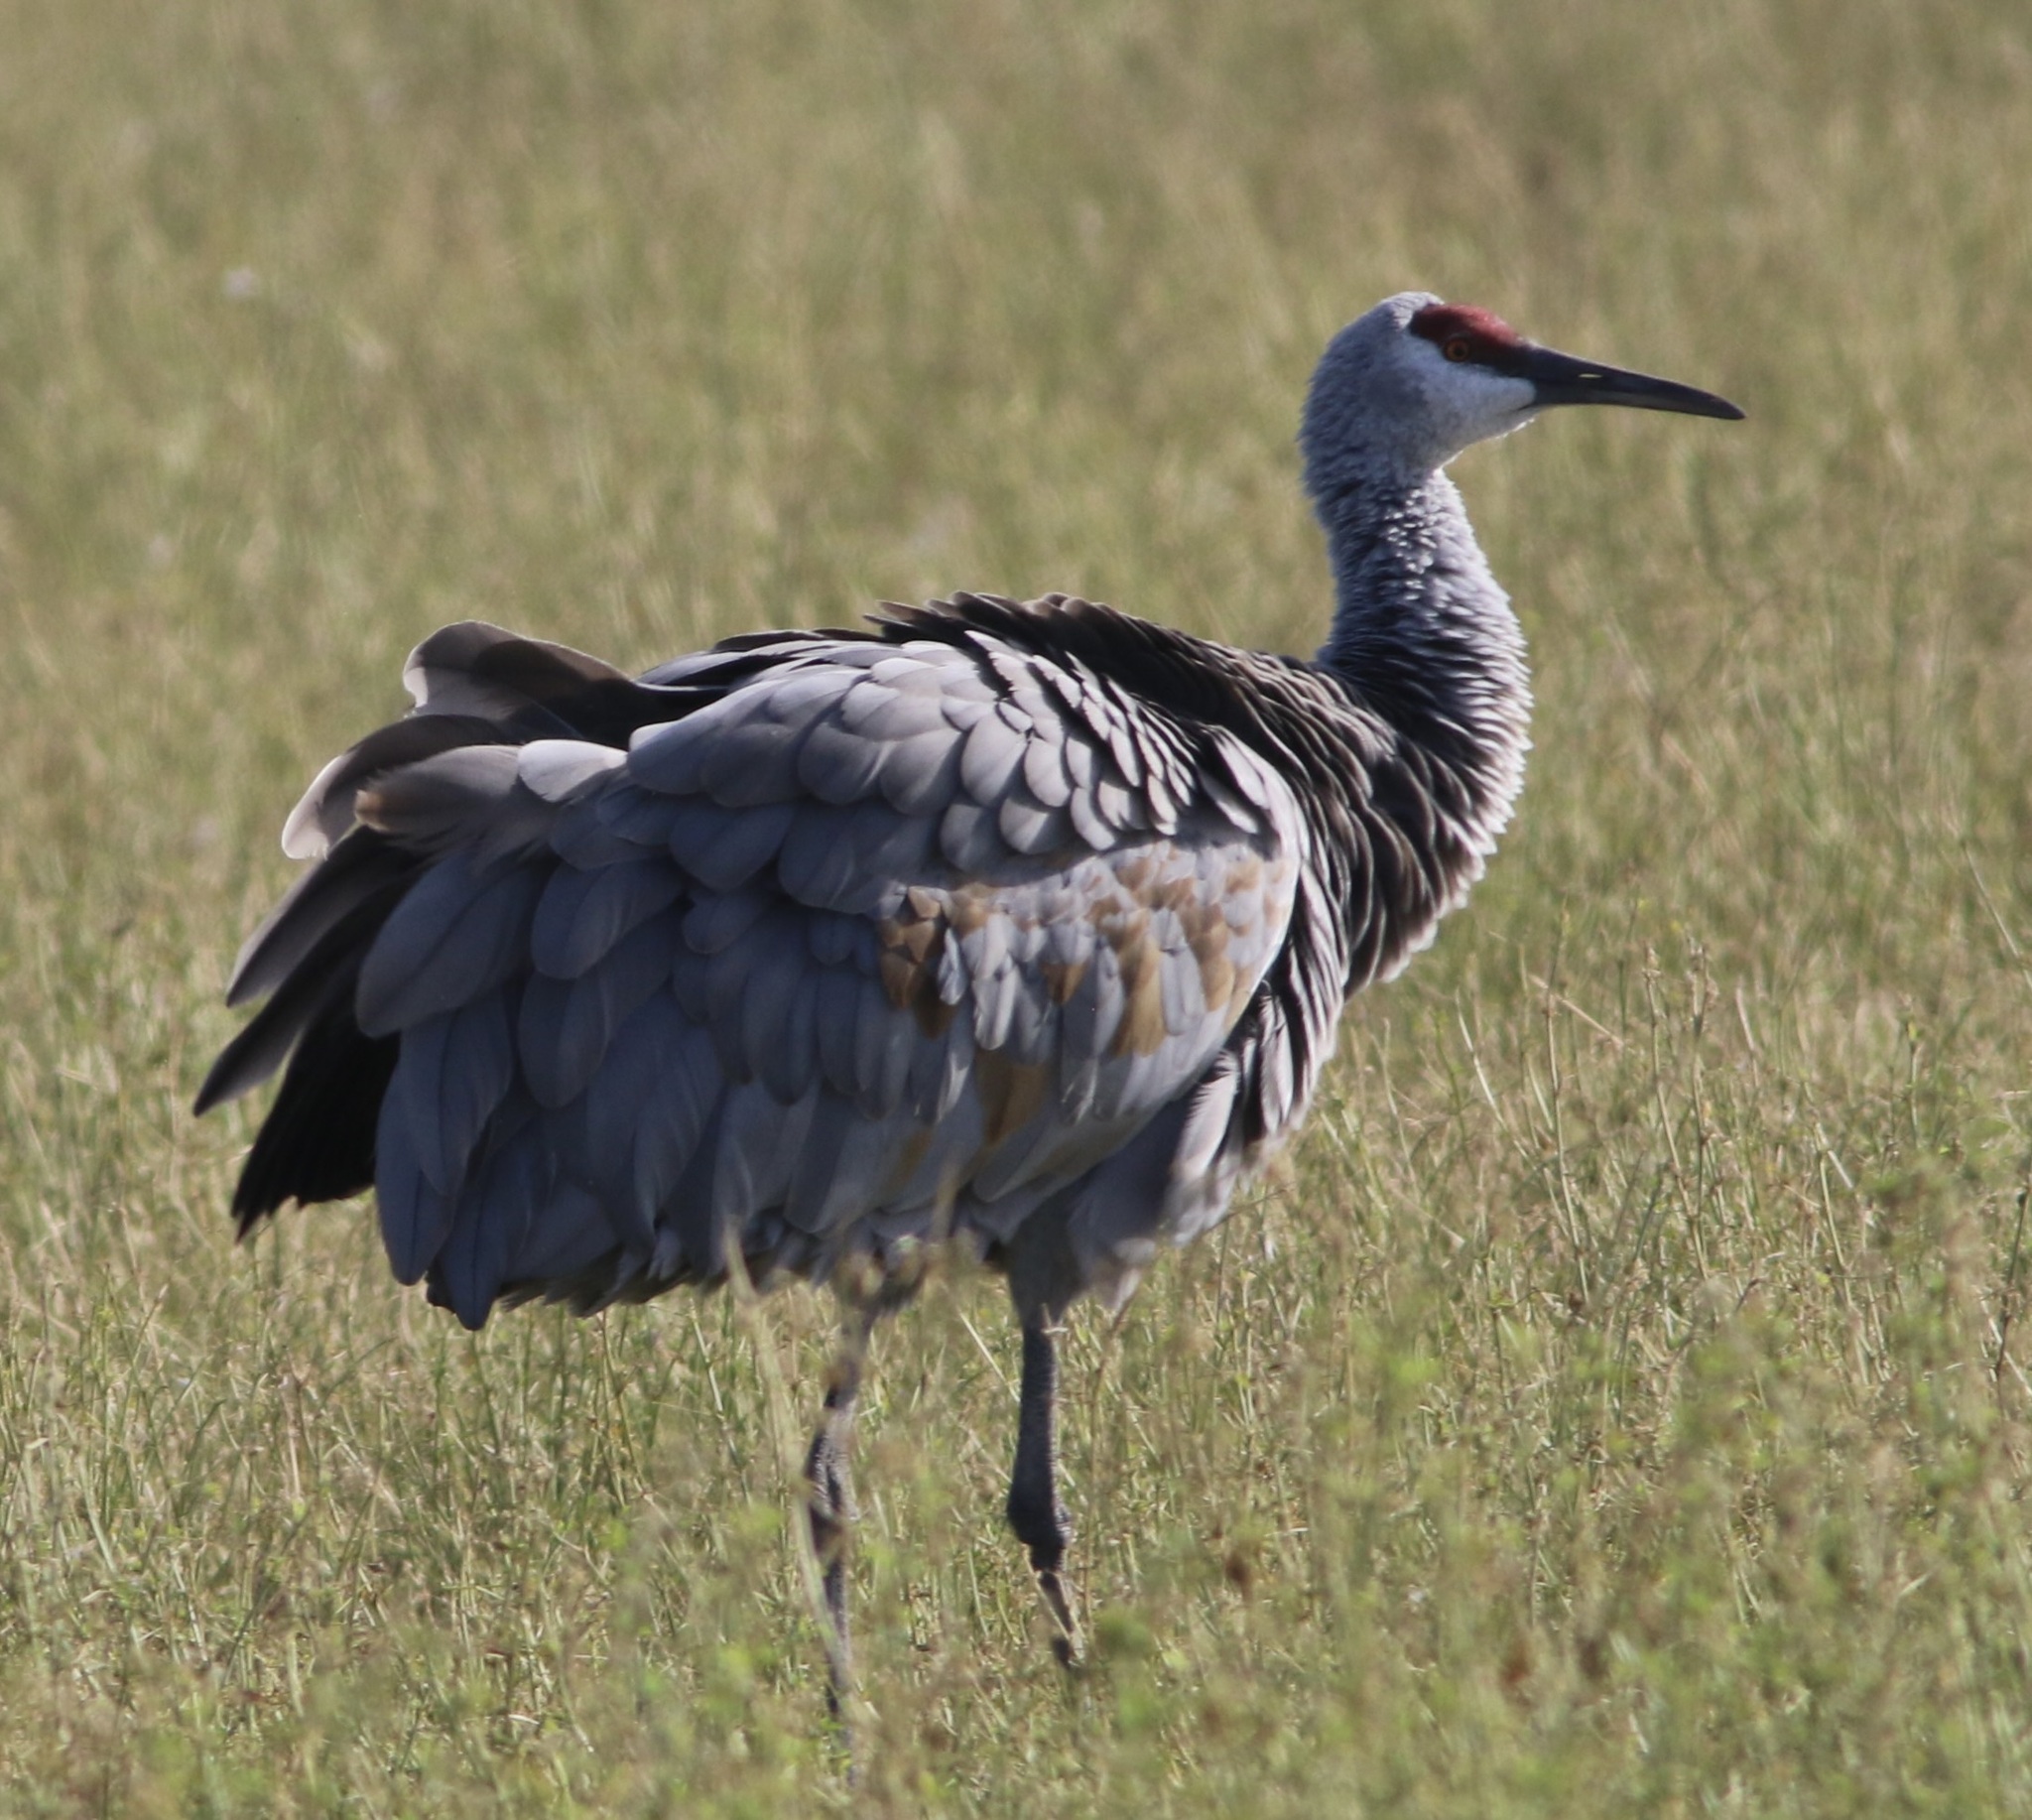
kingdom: Animalia
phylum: Chordata
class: Aves
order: Gruiformes
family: Gruidae
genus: Grus
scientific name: Grus canadensis
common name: Sandhill crane
